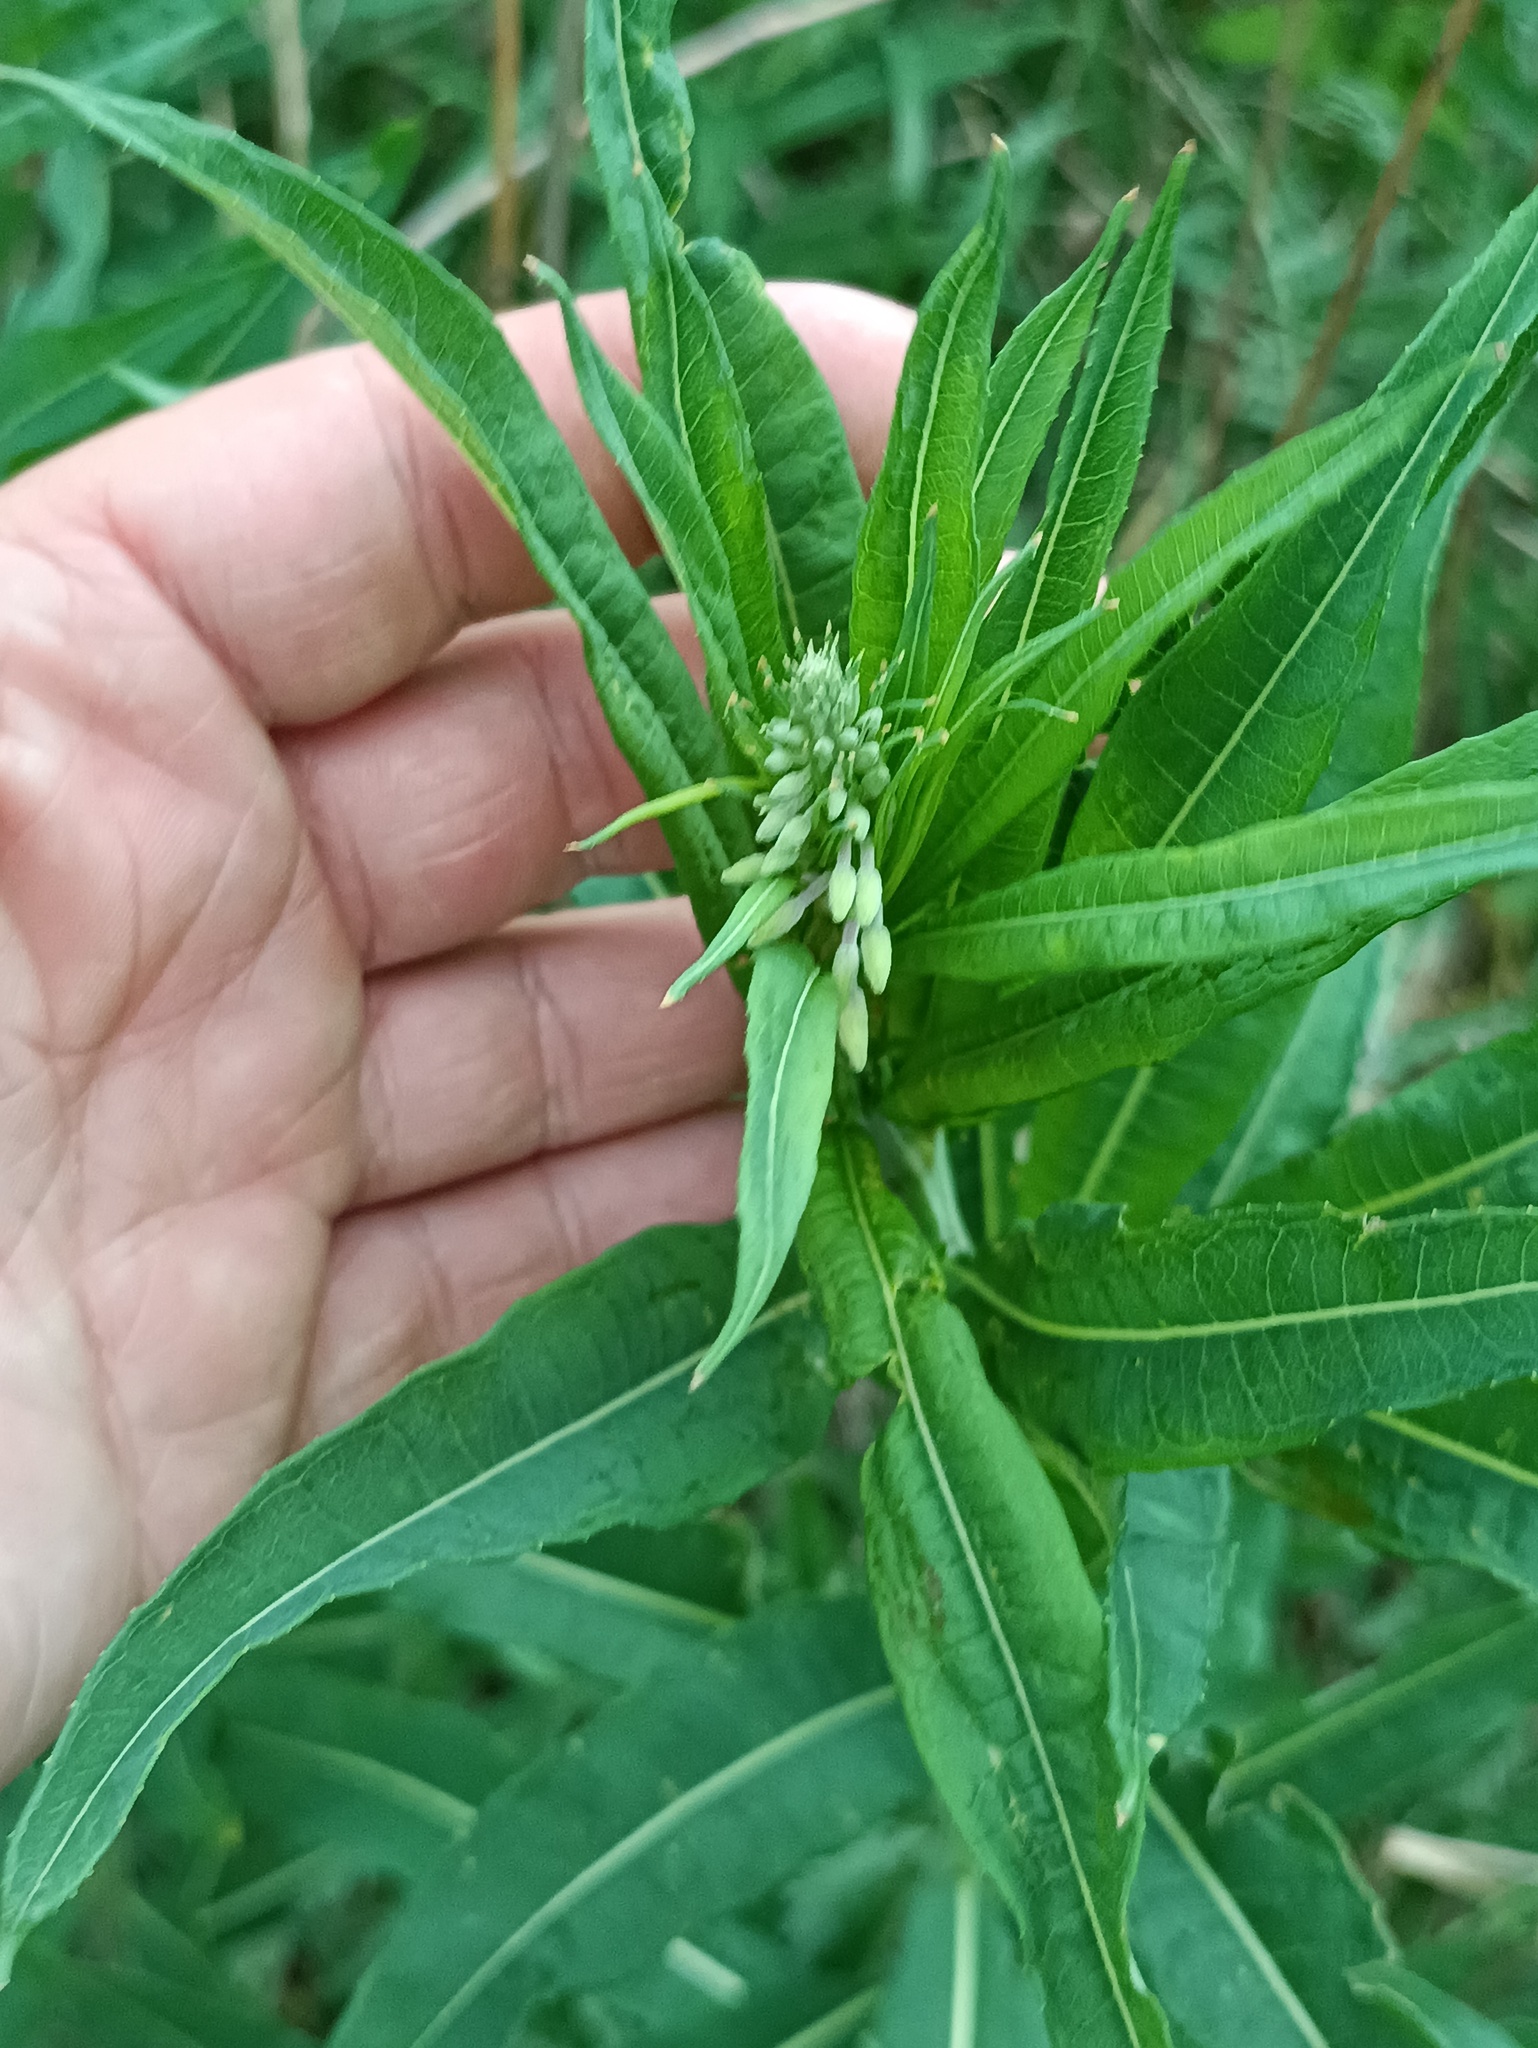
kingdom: Plantae
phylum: Tracheophyta
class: Magnoliopsida
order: Myrtales
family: Onagraceae
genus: Chamaenerion
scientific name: Chamaenerion angustifolium
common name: Fireweed
